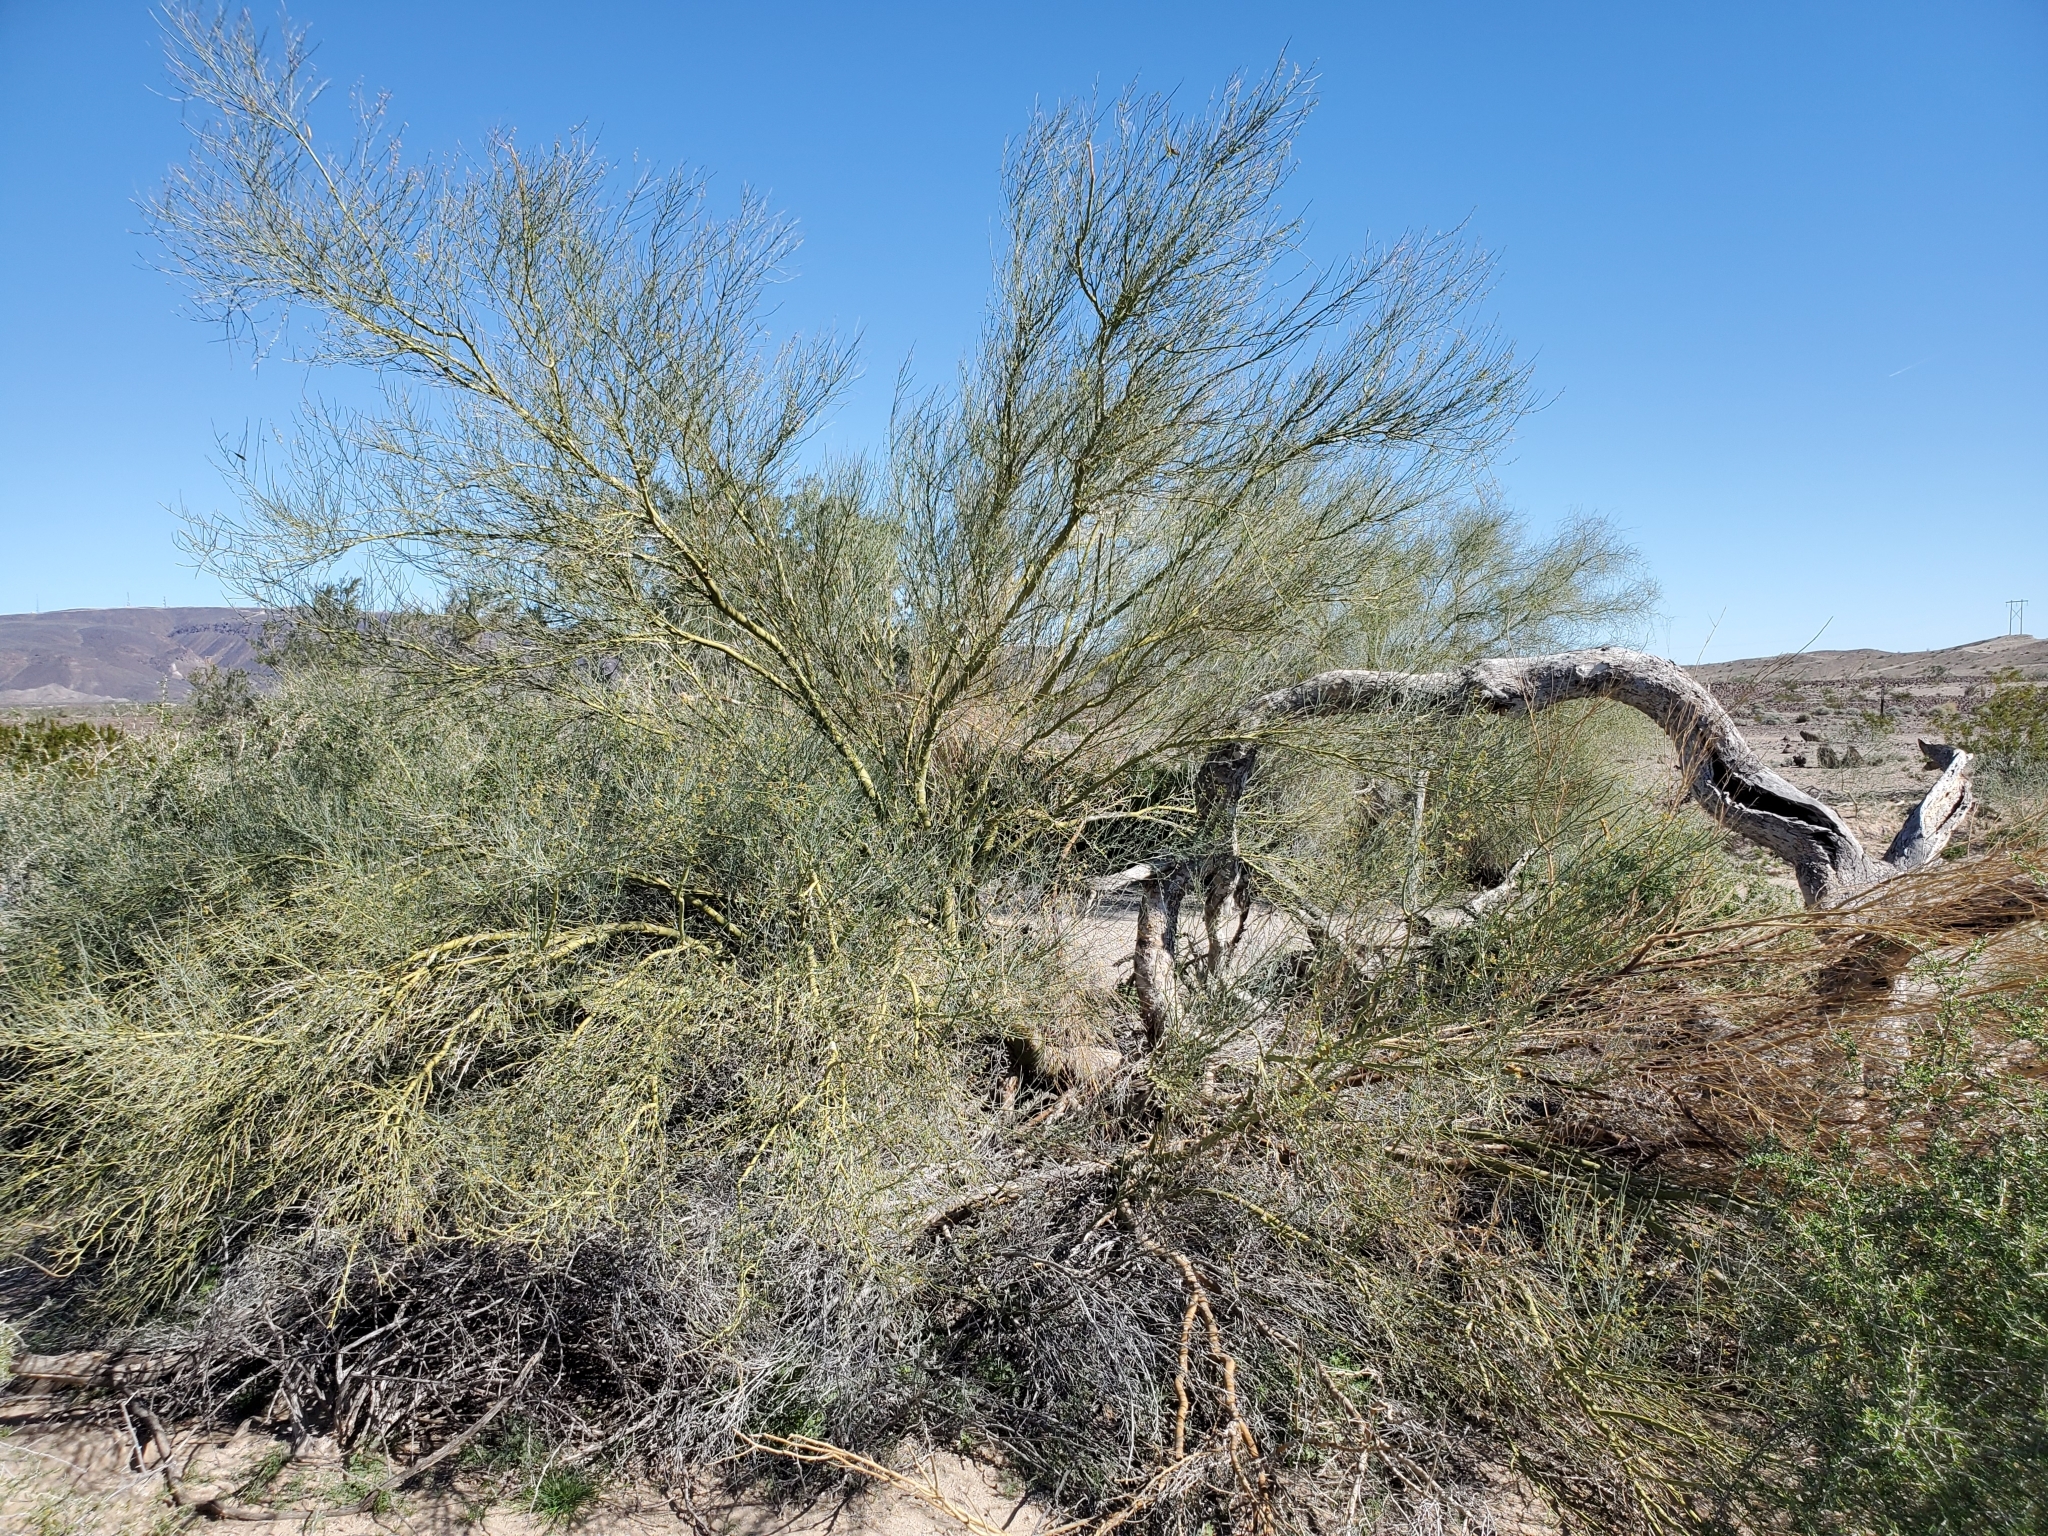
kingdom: Plantae
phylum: Tracheophyta
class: Magnoliopsida
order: Fabales
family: Fabaceae
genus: Parkinsonia
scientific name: Parkinsonia florida
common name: Blue paloverde
